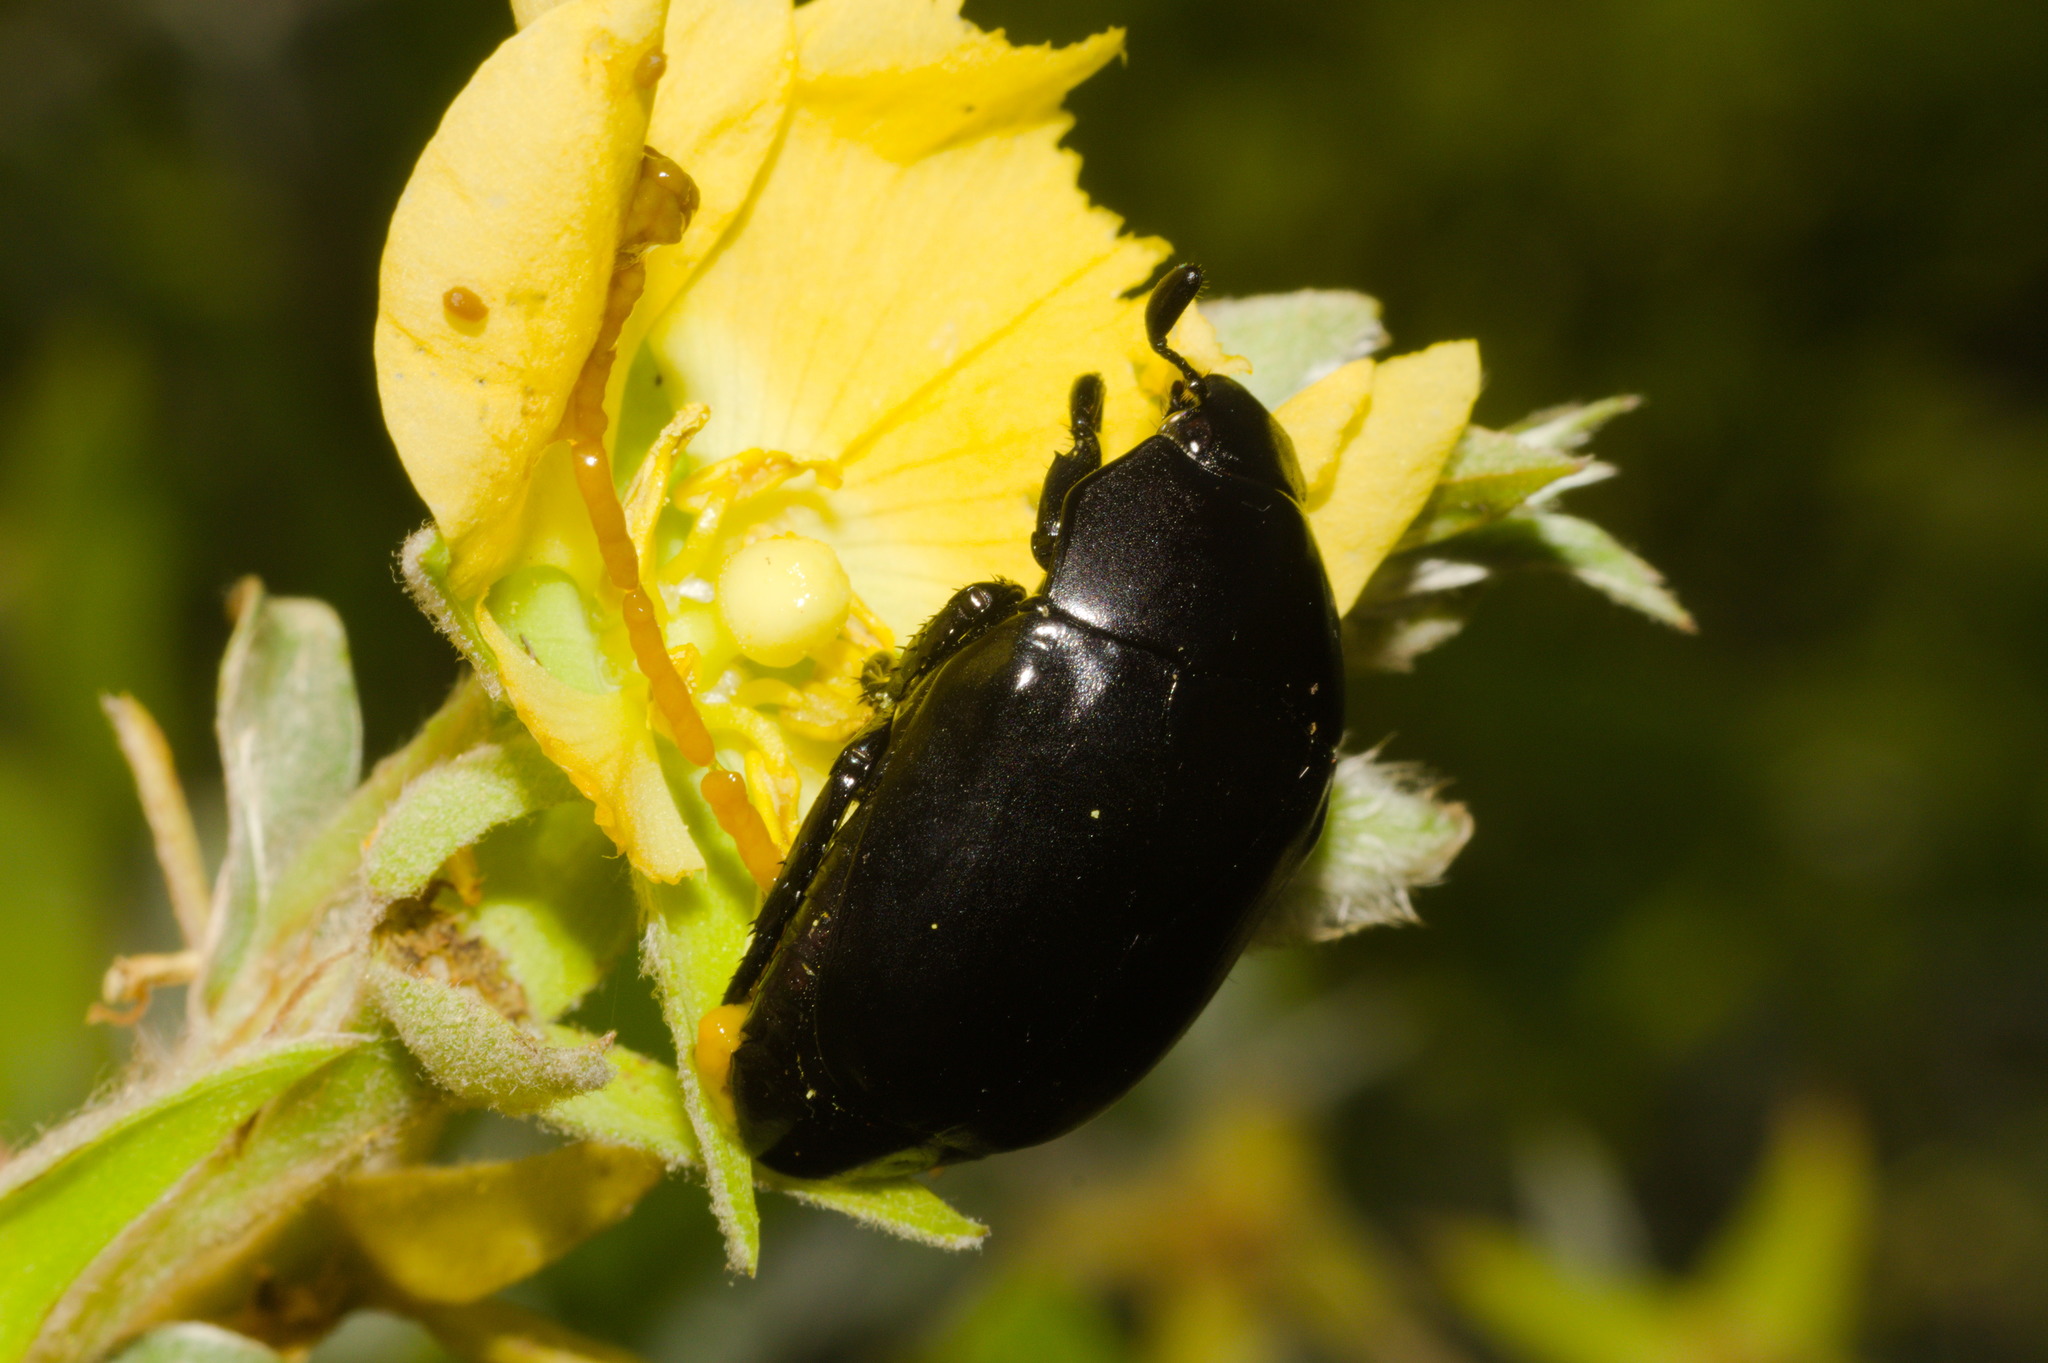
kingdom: Animalia
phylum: Arthropoda
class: Insecta
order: Coleoptera
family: Scarabaeidae
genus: Macraspis
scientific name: Macraspis morio
